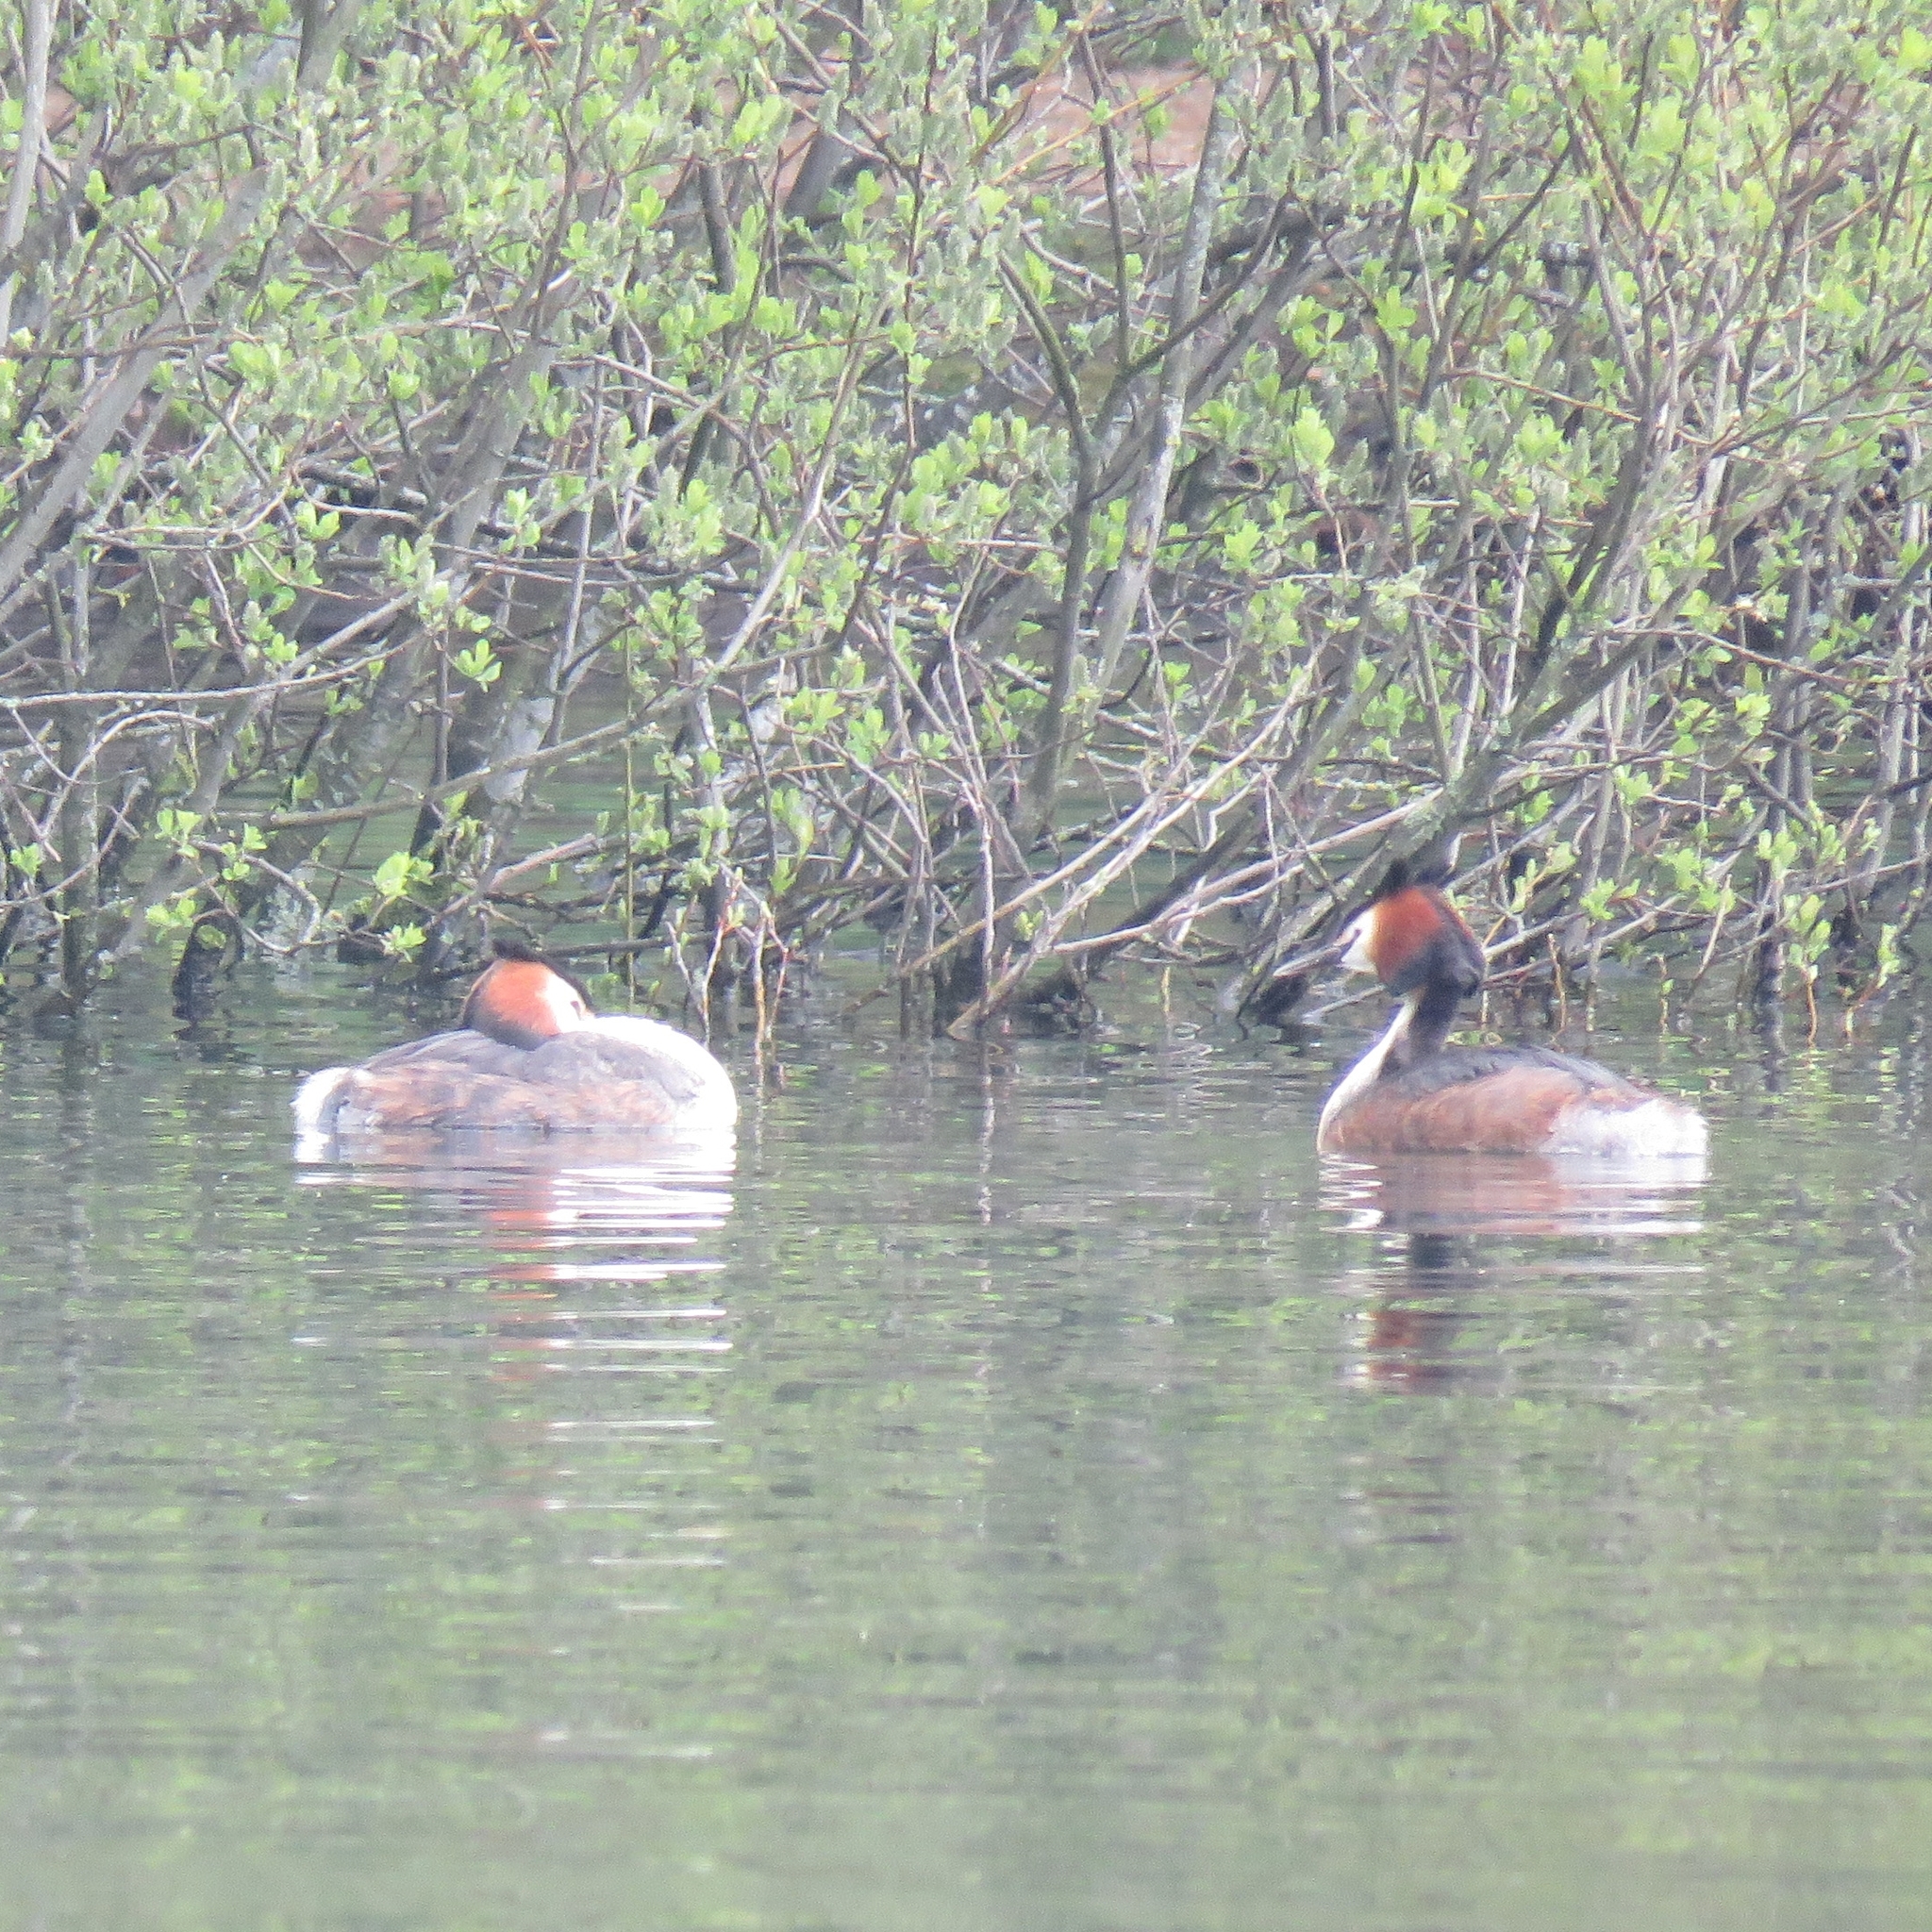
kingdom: Animalia
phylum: Chordata
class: Aves
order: Podicipediformes
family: Podicipedidae
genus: Podiceps
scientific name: Podiceps cristatus
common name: Great crested grebe
